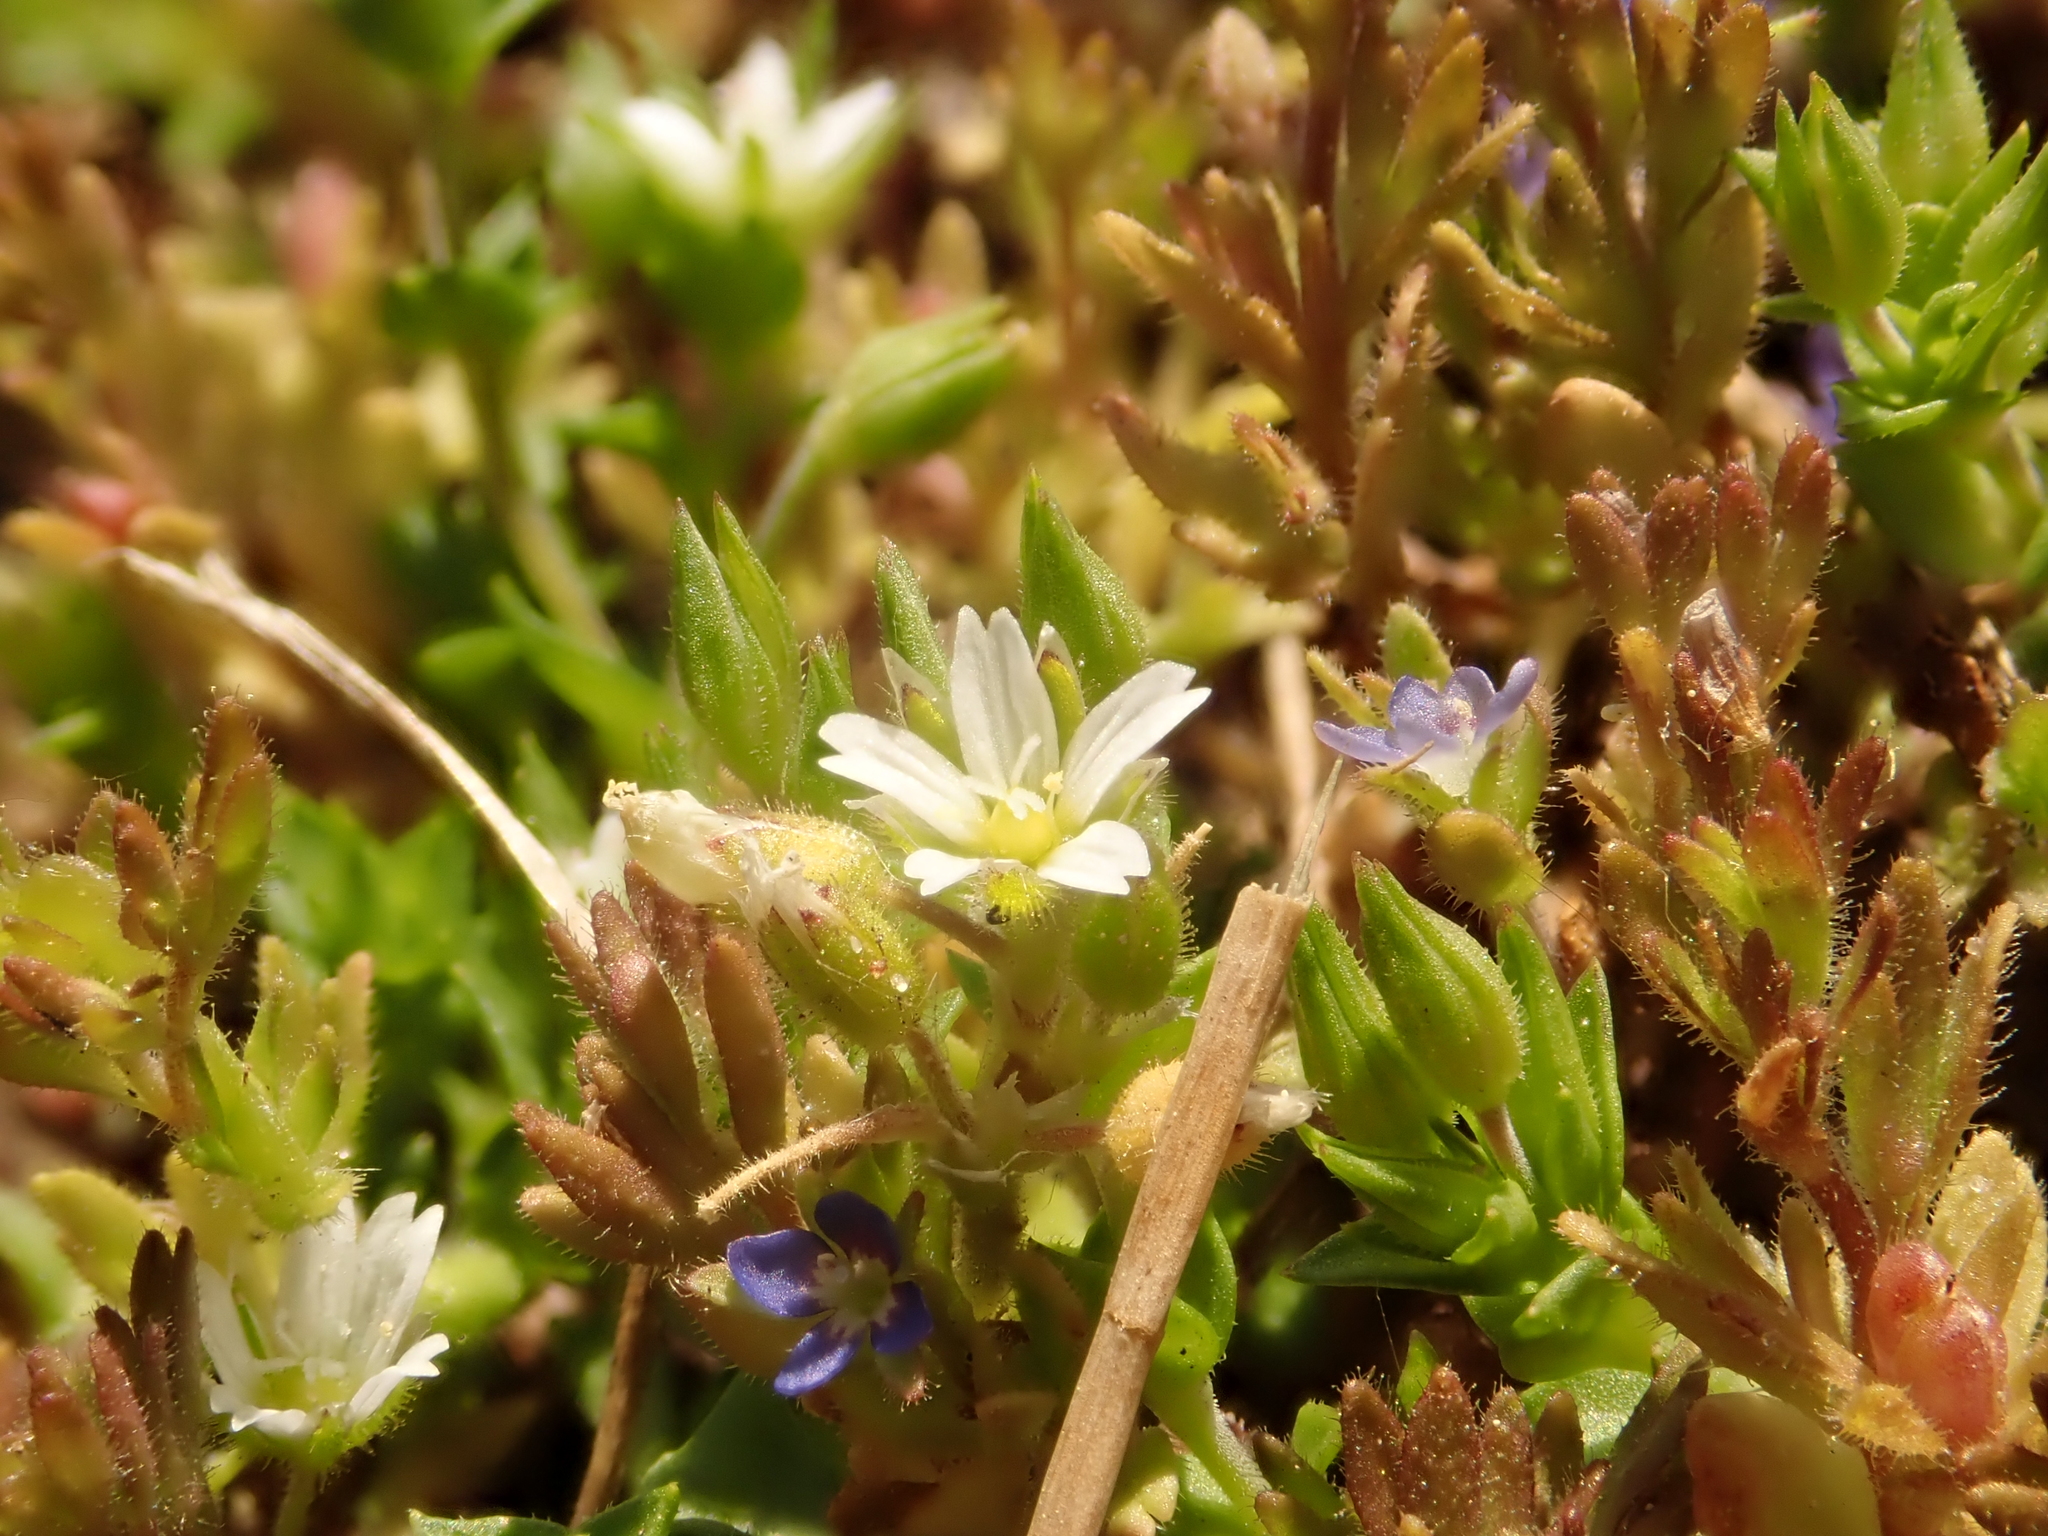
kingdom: Plantae
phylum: Tracheophyta
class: Magnoliopsida
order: Caryophyllales
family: Caryophyllaceae
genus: Arenaria
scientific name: Arenaria serpyllifolia
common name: Thyme-leaved sandwort
